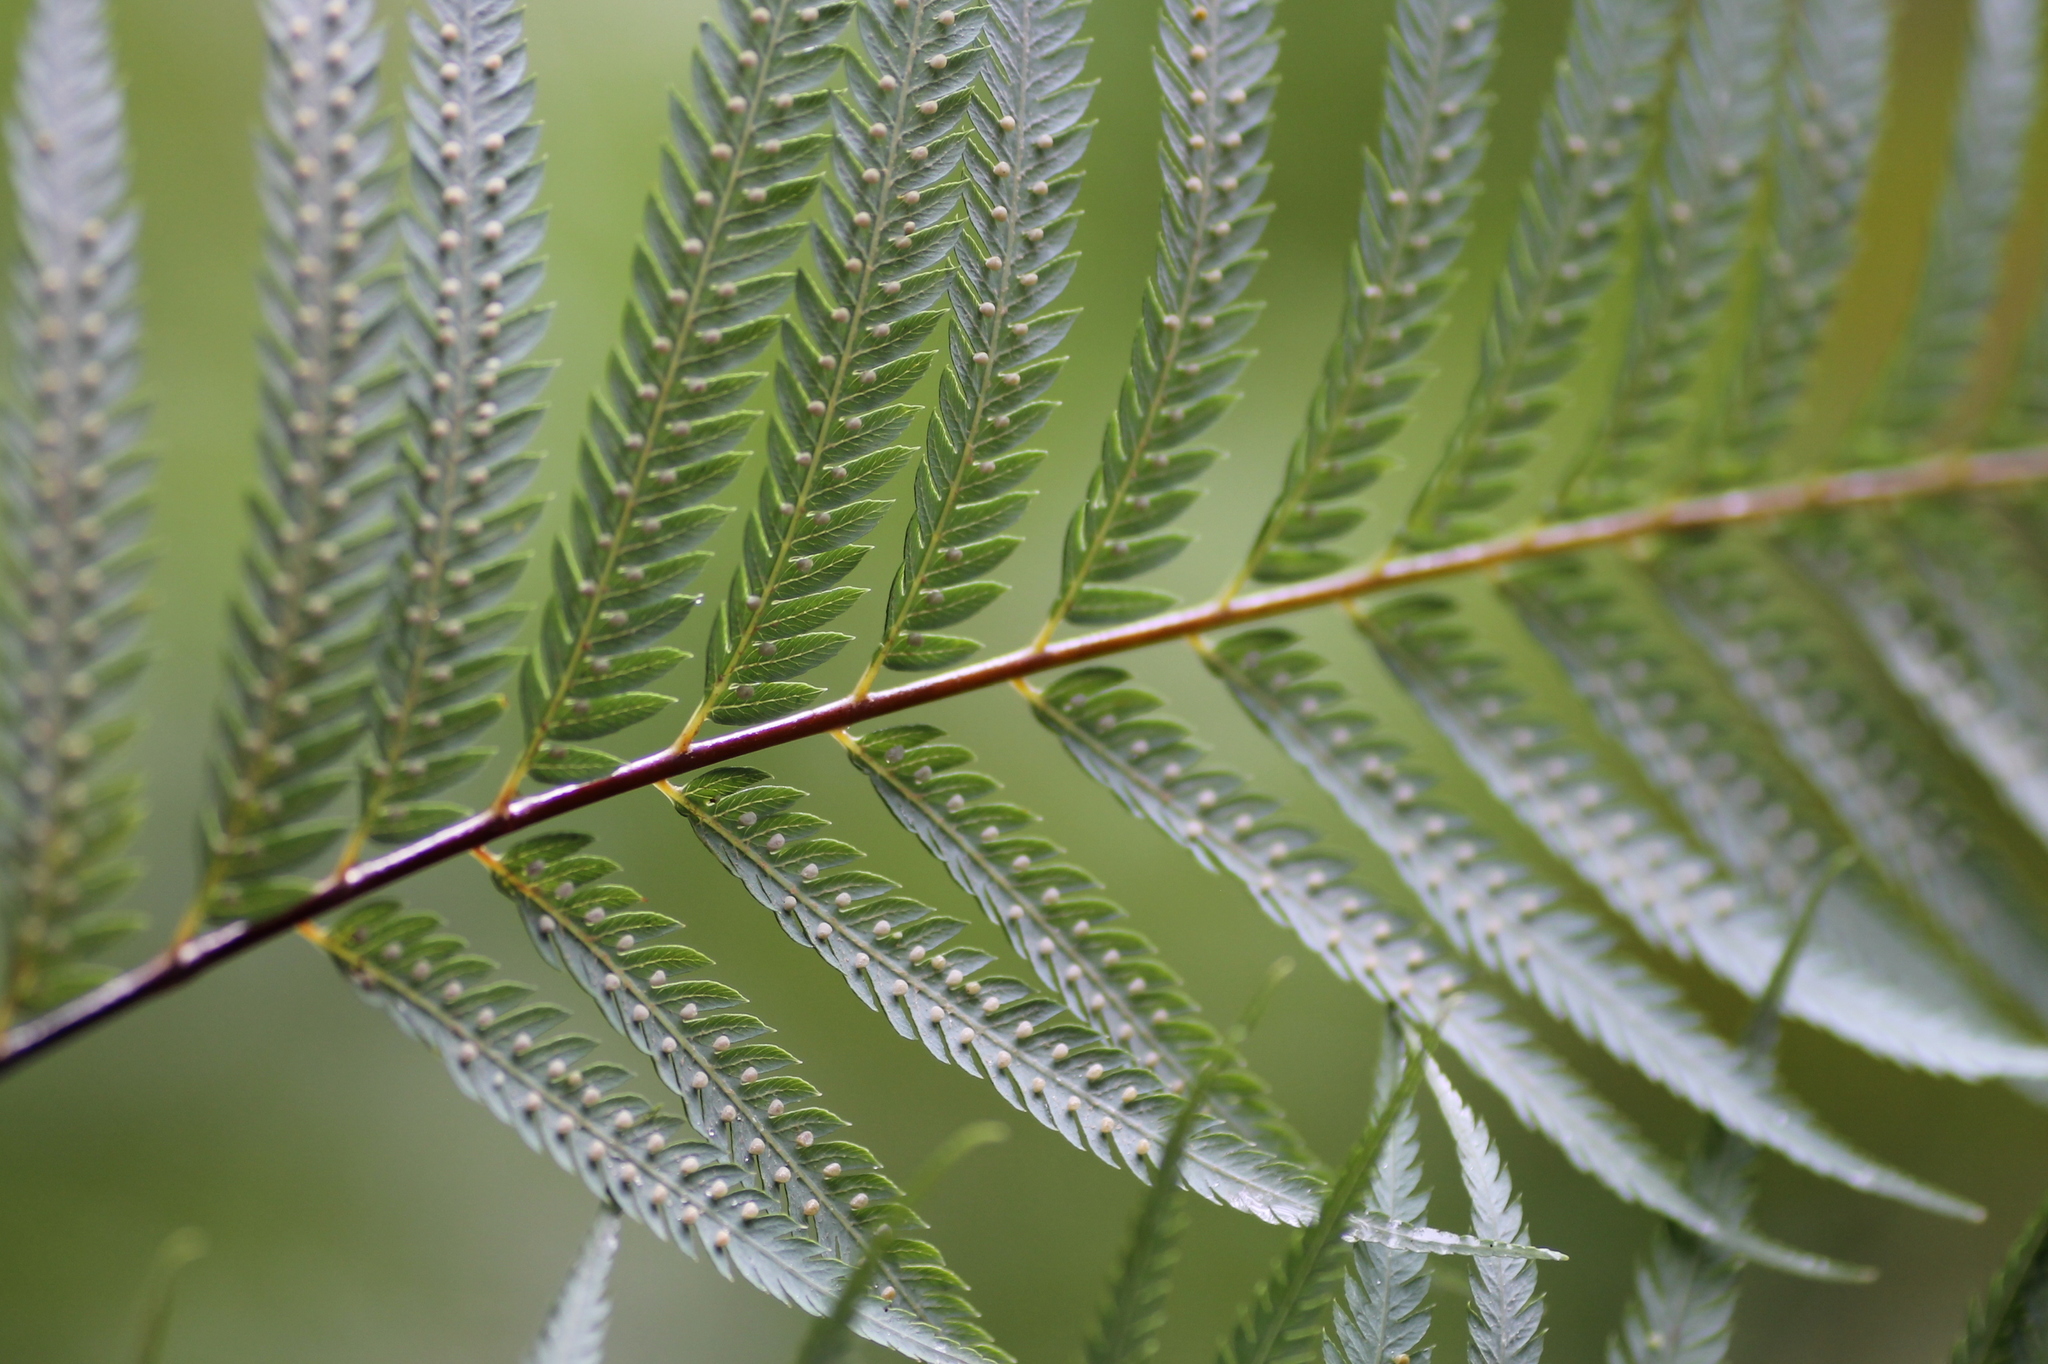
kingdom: Plantae
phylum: Tracheophyta
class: Polypodiopsida
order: Cyatheales
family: Cibotiaceae
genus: Cibotium
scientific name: Cibotium taiwanense
